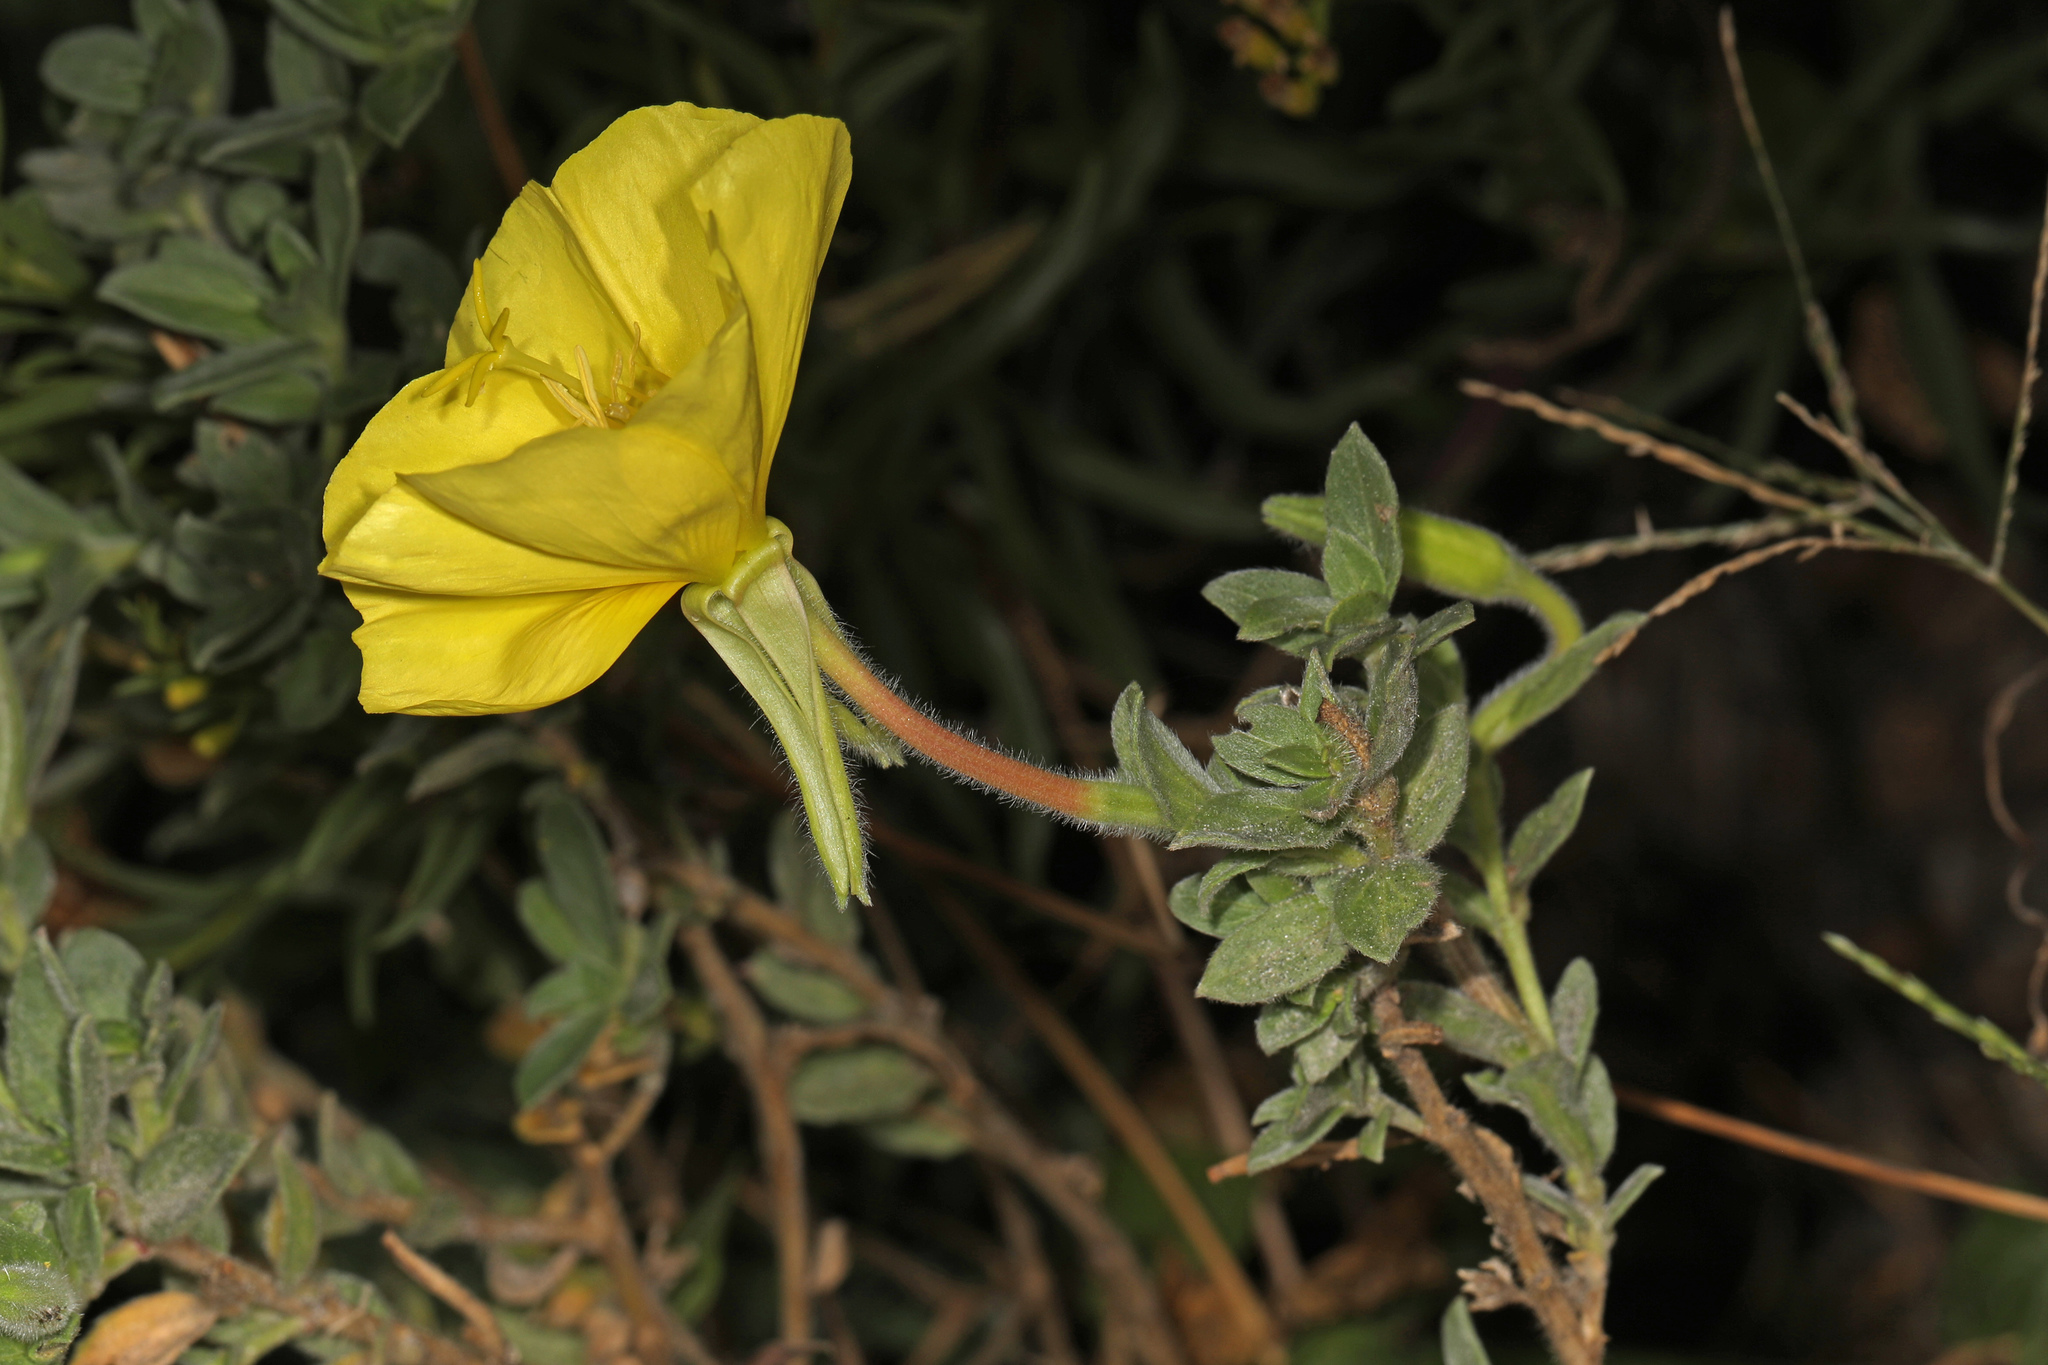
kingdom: Plantae
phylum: Tracheophyta
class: Magnoliopsida
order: Myrtales
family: Onagraceae
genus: Oenothera
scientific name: Oenothera drummondii
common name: Beach evening-primrose
